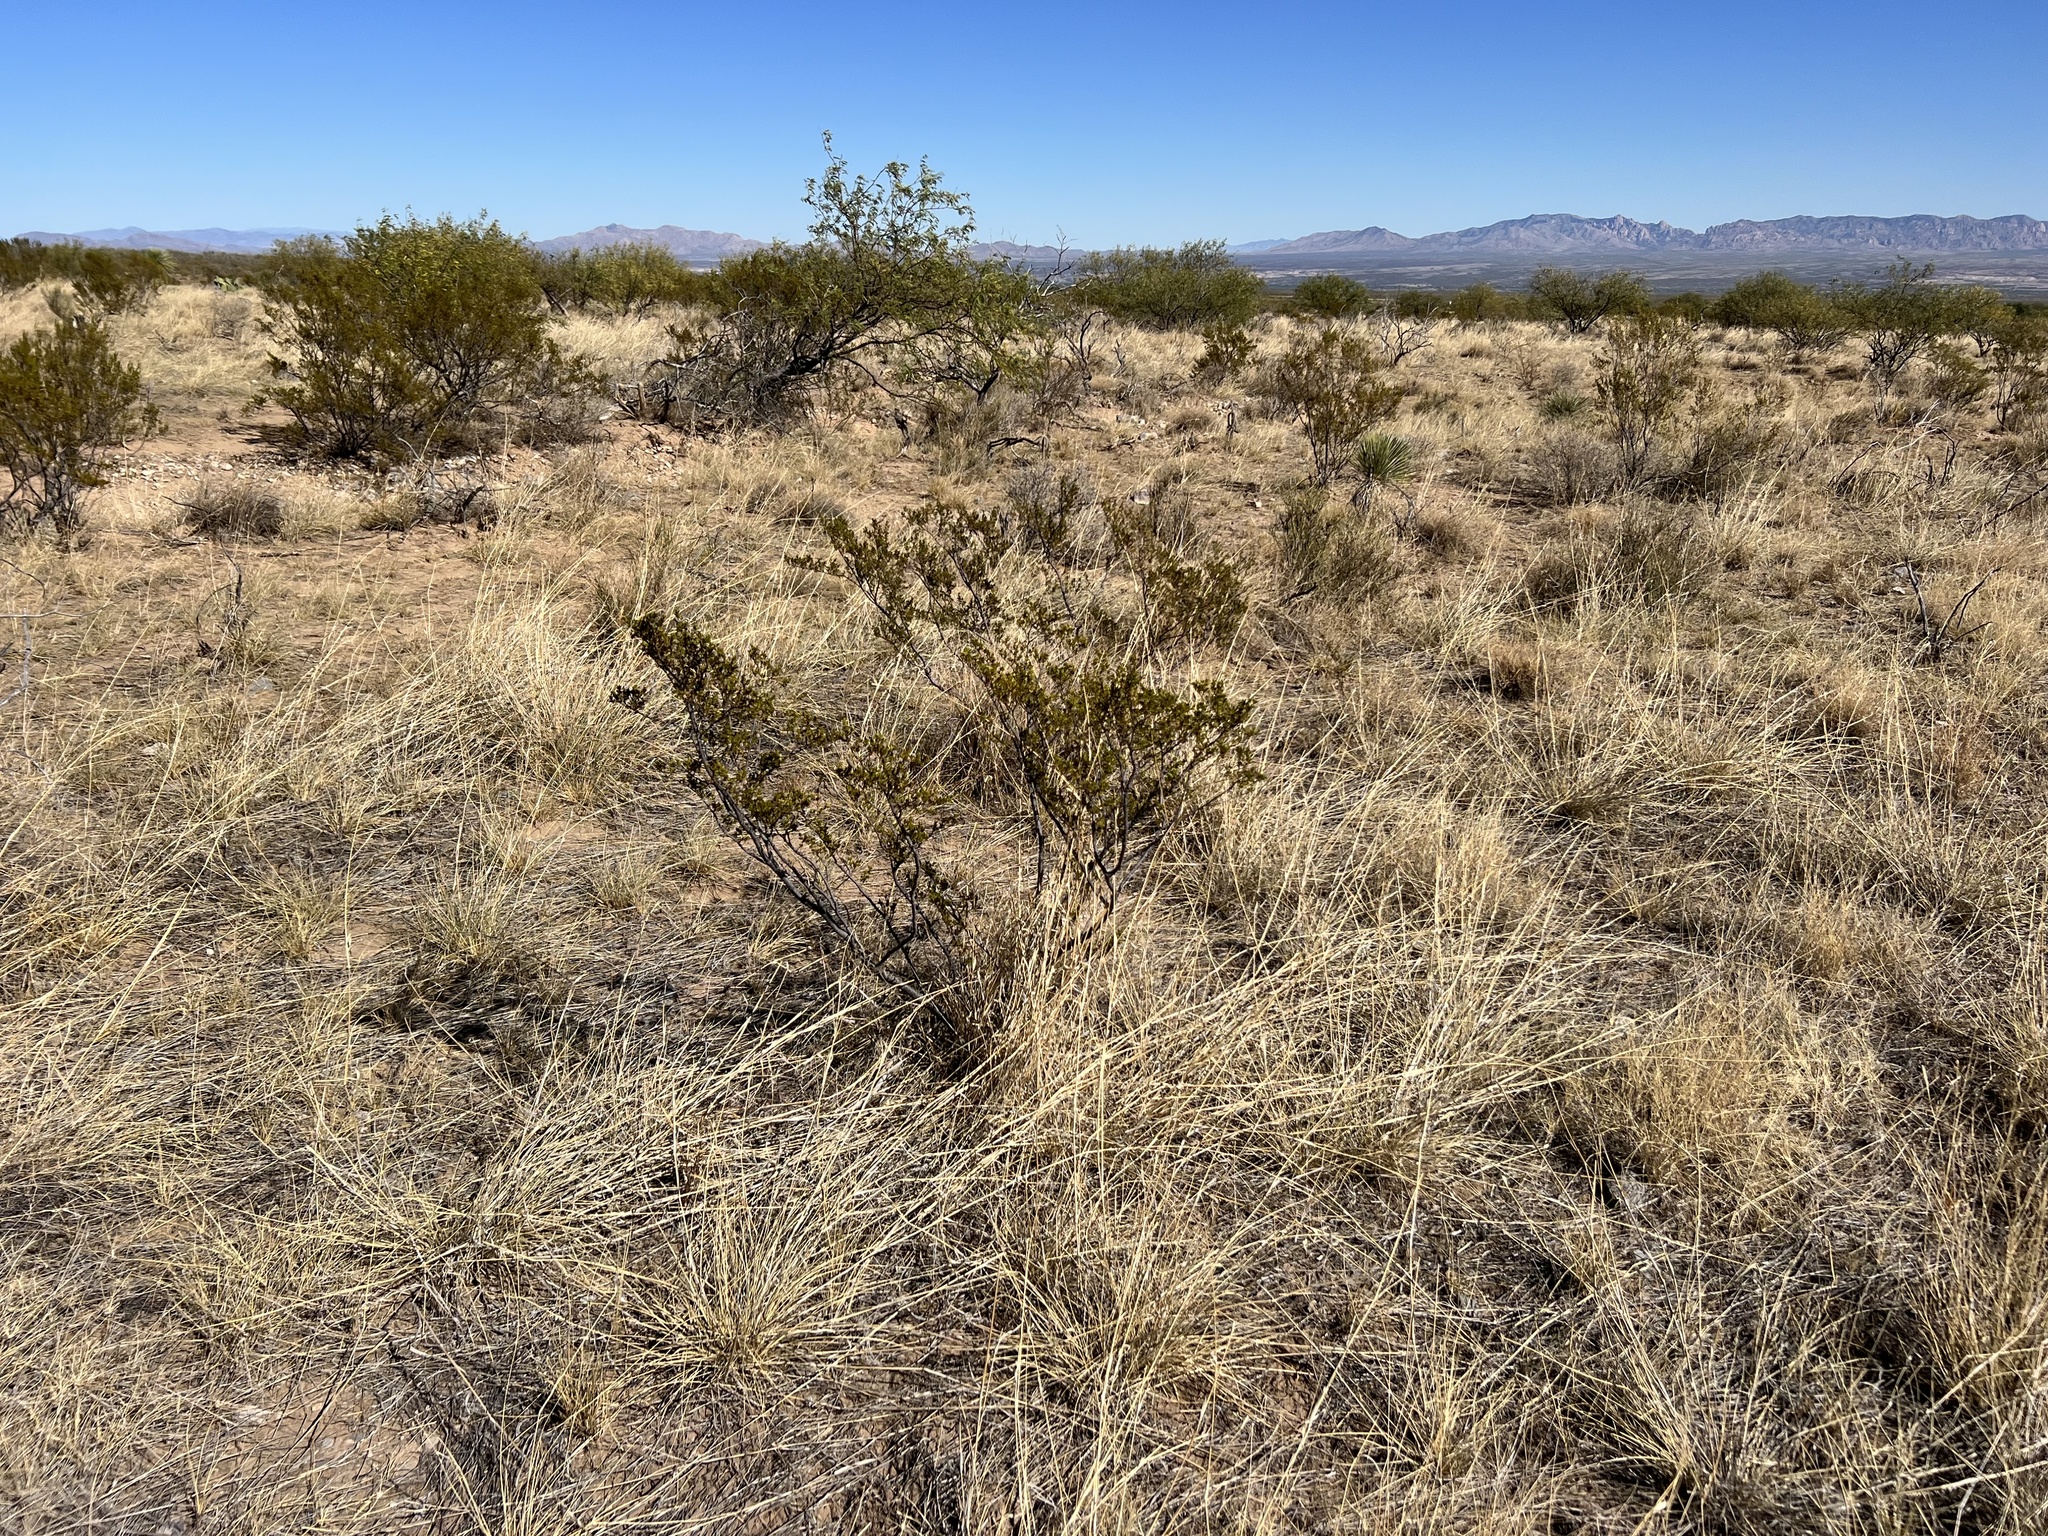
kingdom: Plantae
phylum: Tracheophyta
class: Magnoliopsida
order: Zygophyllales
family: Zygophyllaceae
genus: Larrea
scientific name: Larrea tridentata
